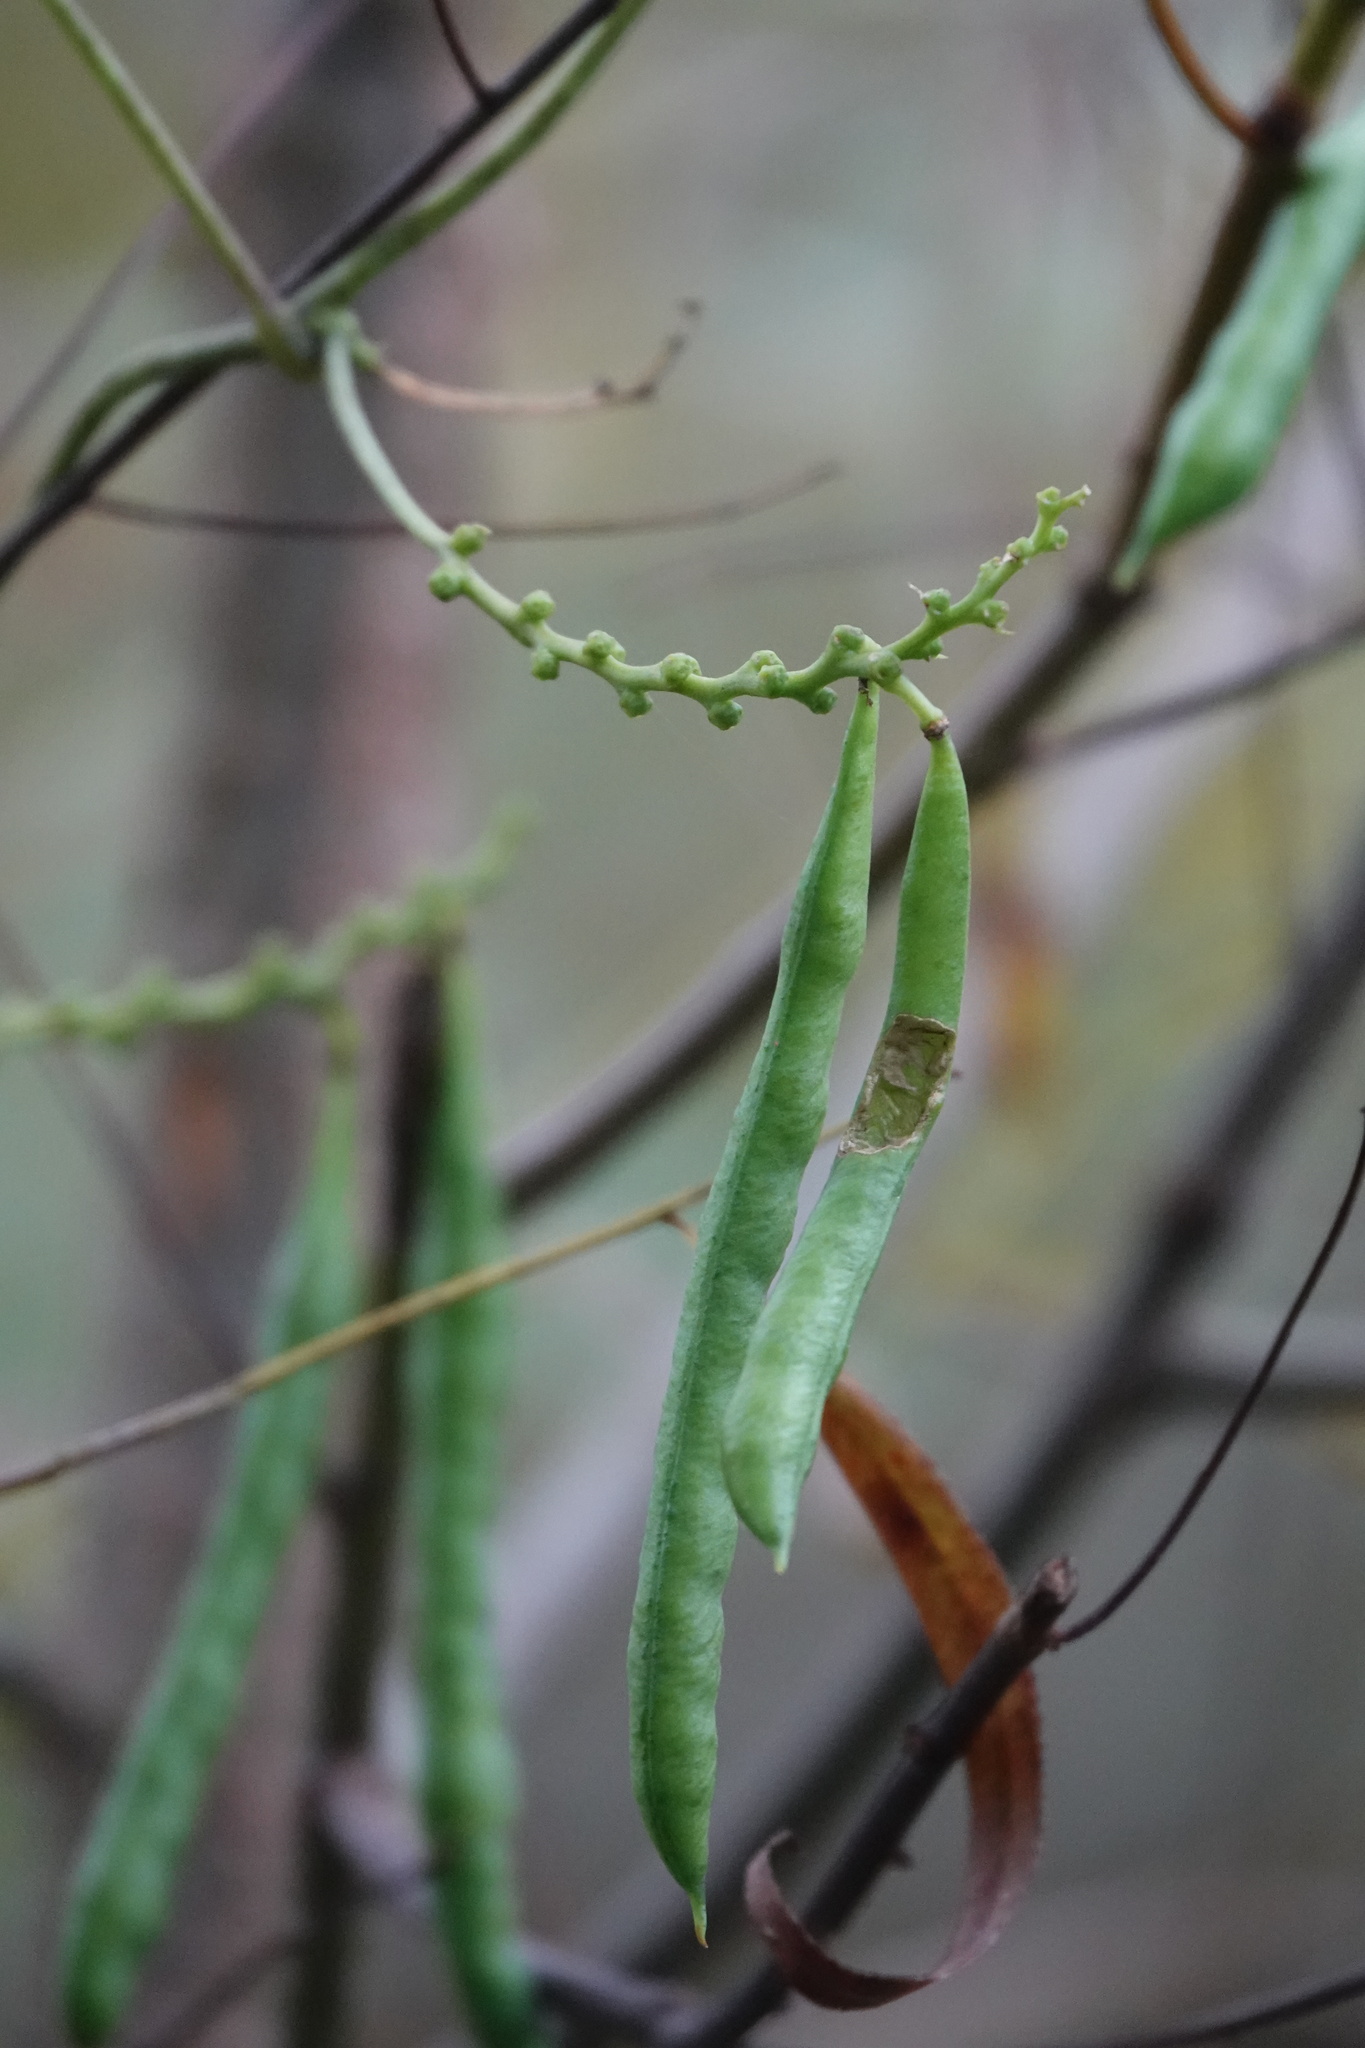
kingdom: Plantae
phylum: Tracheophyta
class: Magnoliopsida
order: Fabales
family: Fabaceae
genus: Apios
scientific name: Apios americana
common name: American potato-bean
